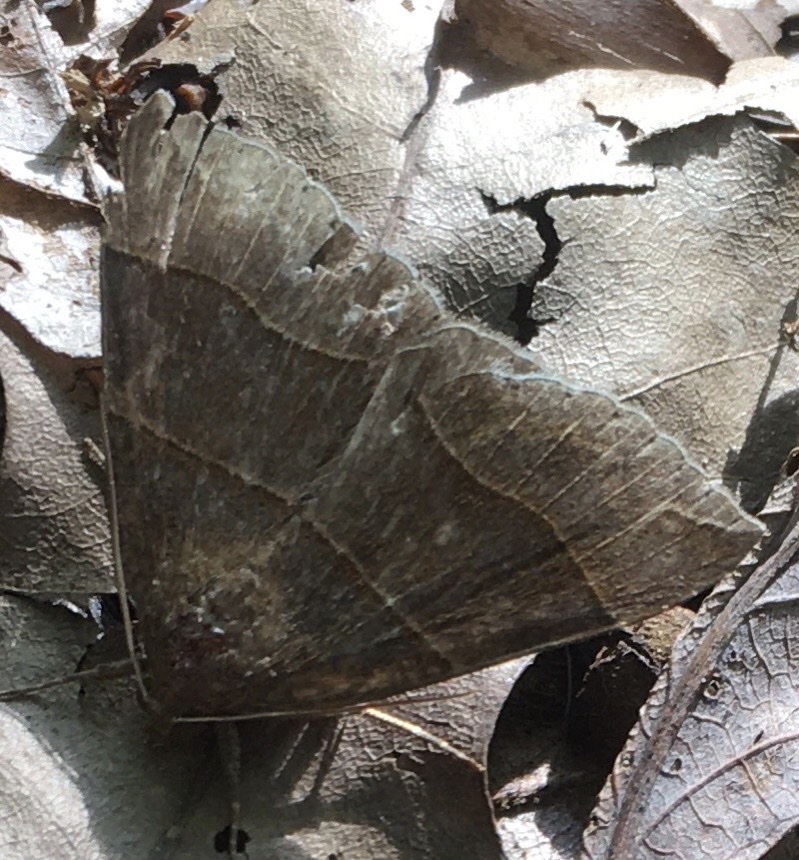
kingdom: Animalia
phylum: Arthropoda
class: Insecta
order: Lepidoptera
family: Erebidae
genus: Parallelia
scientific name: Parallelia bistriaris
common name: Maple looper moth
